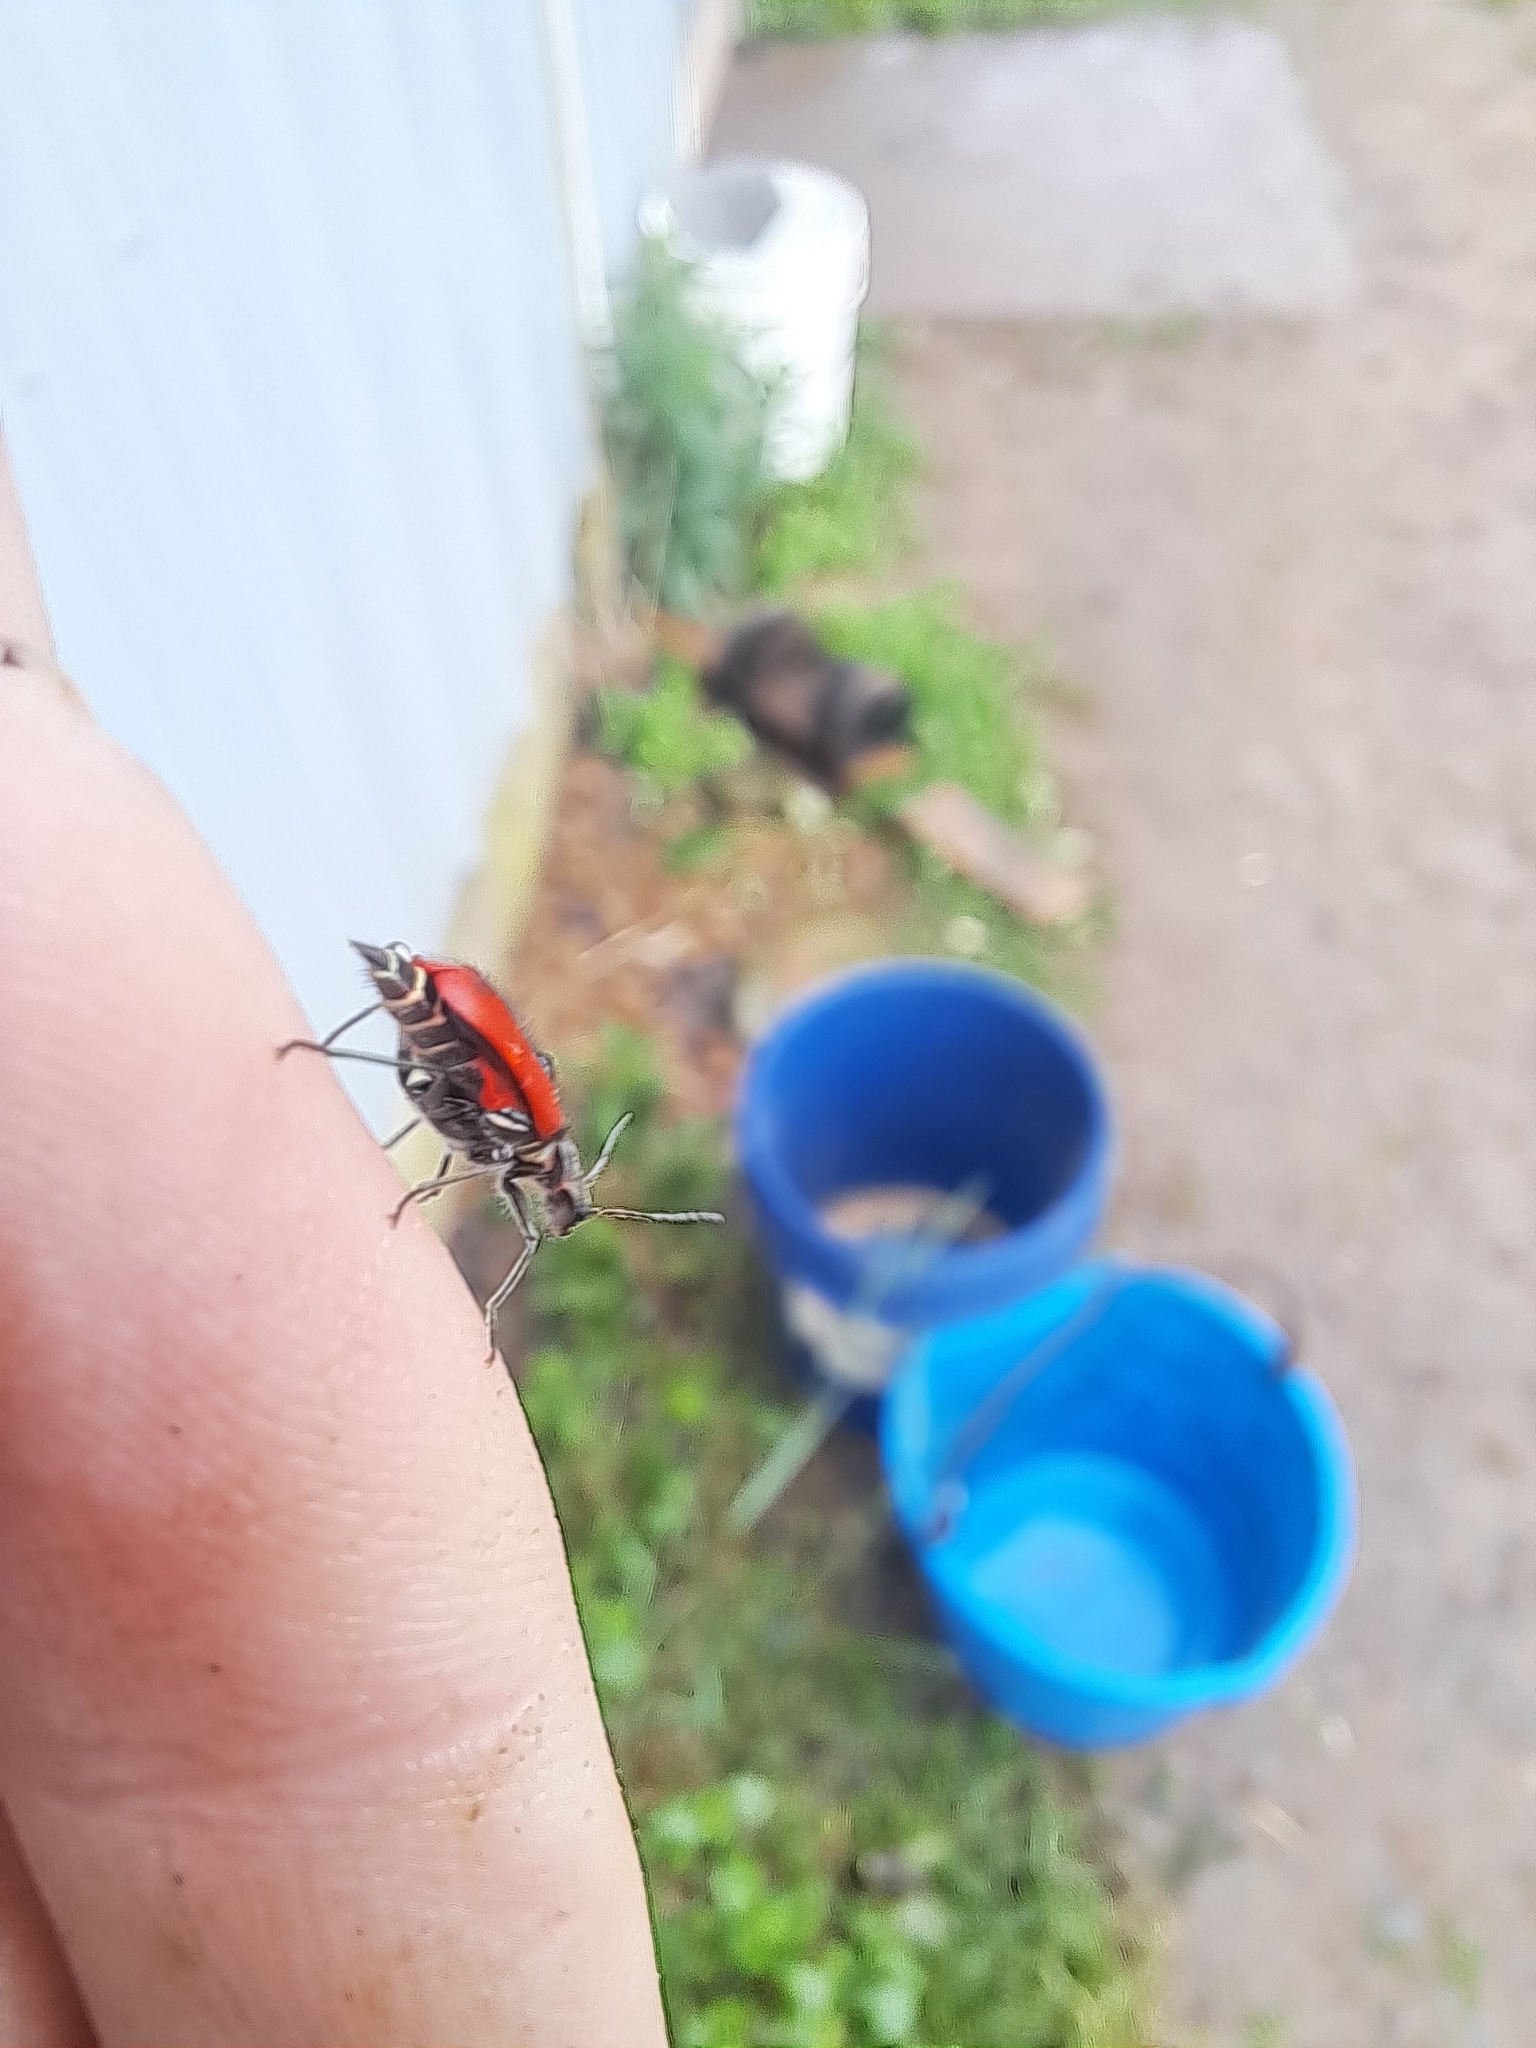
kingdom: Animalia
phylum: Arthropoda
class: Insecta
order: Coleoptera
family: Melyridae
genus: Malachius
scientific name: Malachius aeneus
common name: Scarlet malachite beetle
